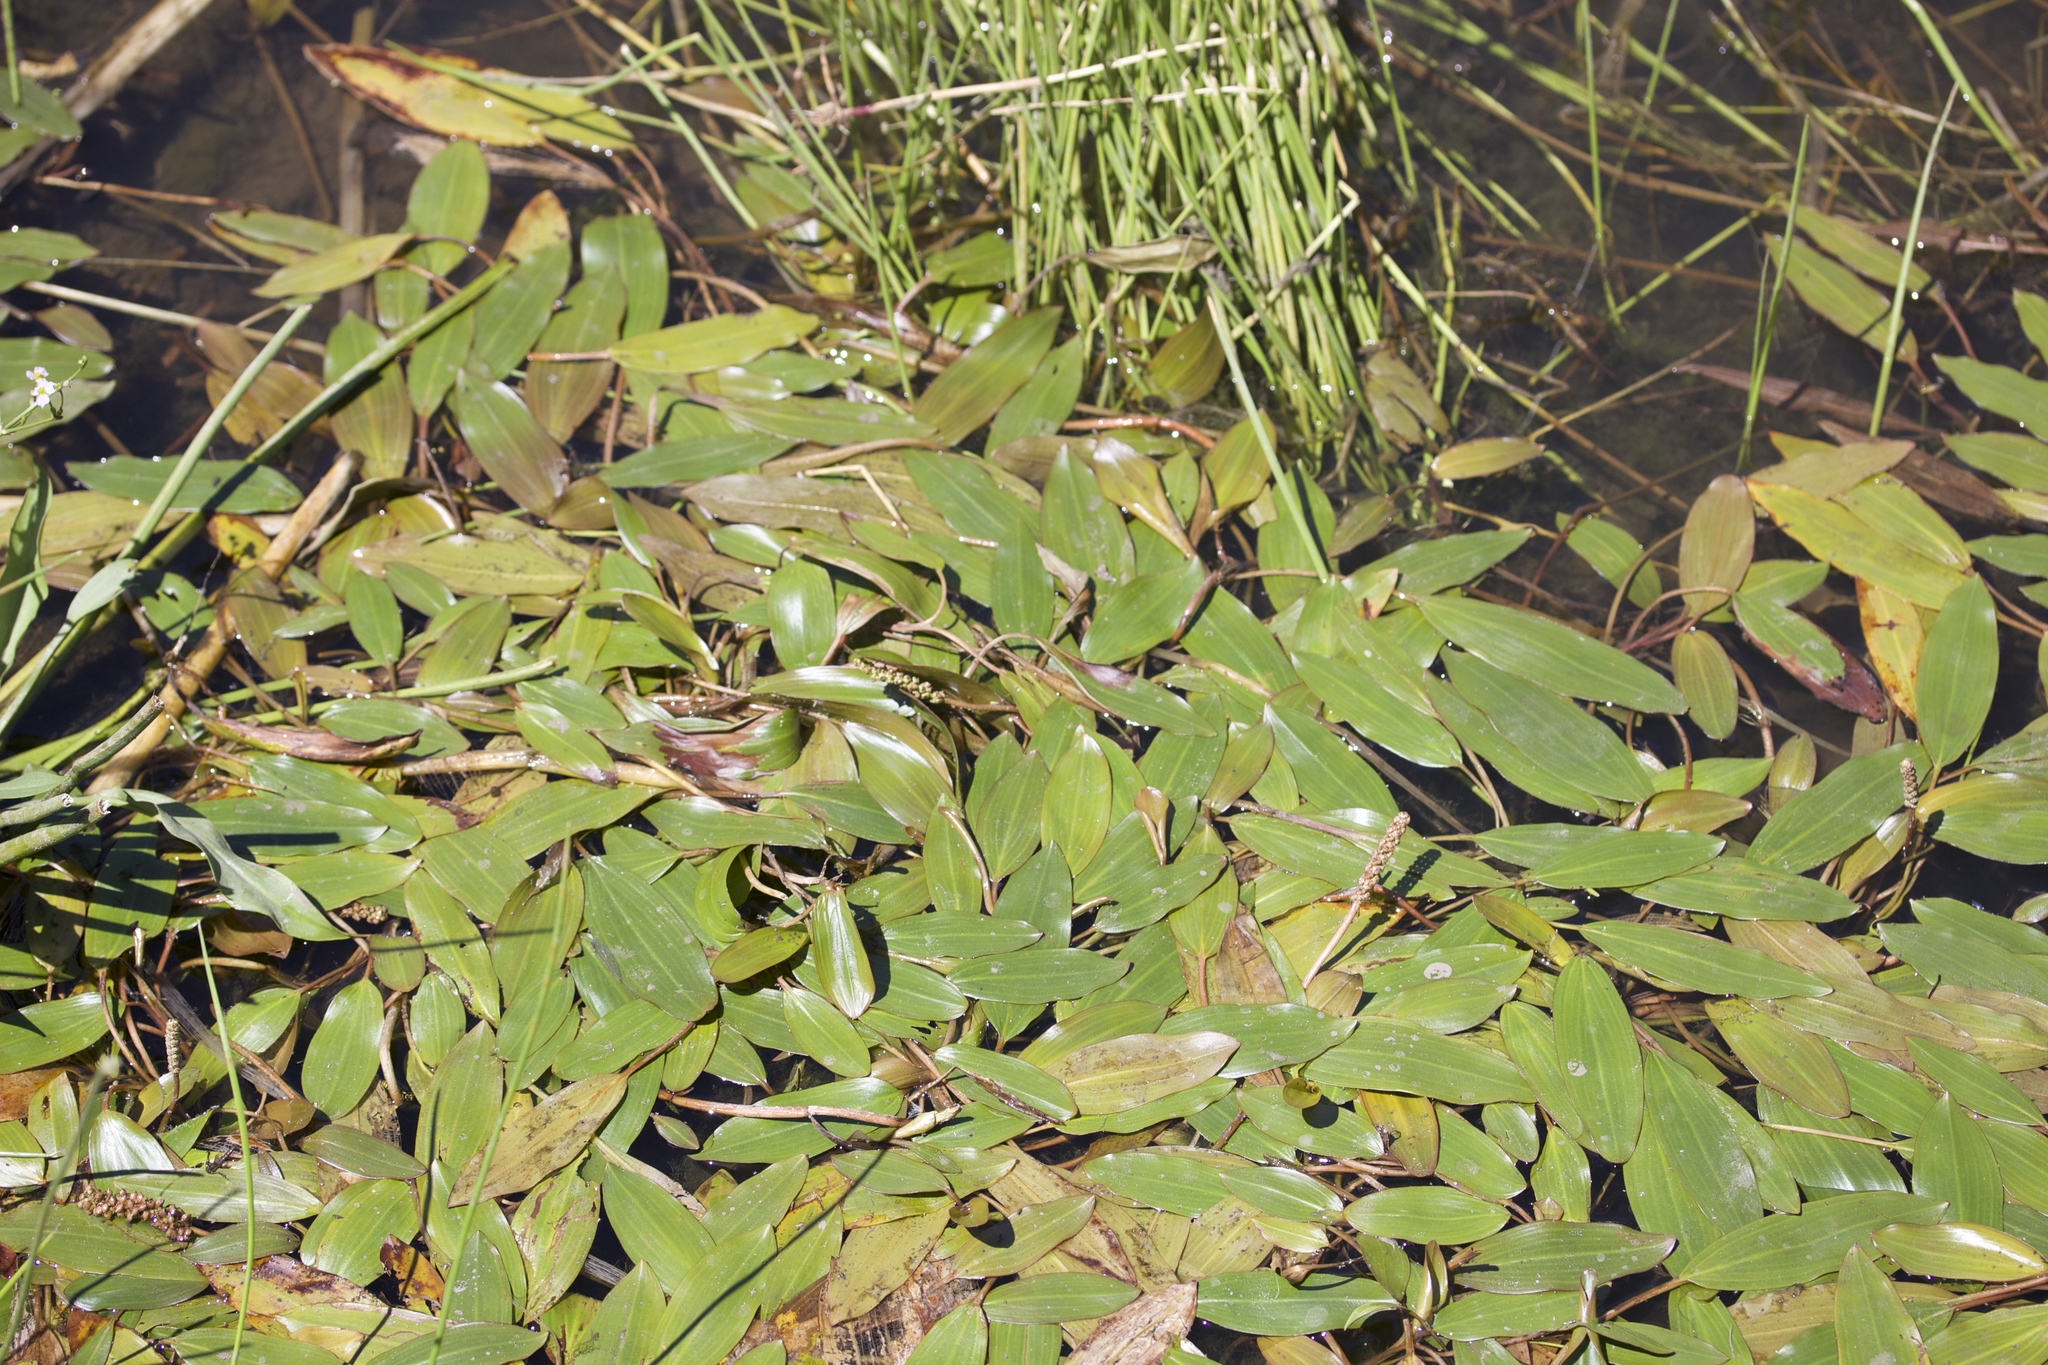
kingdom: Plantae
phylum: Tracheophyta
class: Liliopsida
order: Alismatales
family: Potamogetonaceae
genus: Potamogeton
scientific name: Potamogeton nodosus
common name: Loddon pondweed
